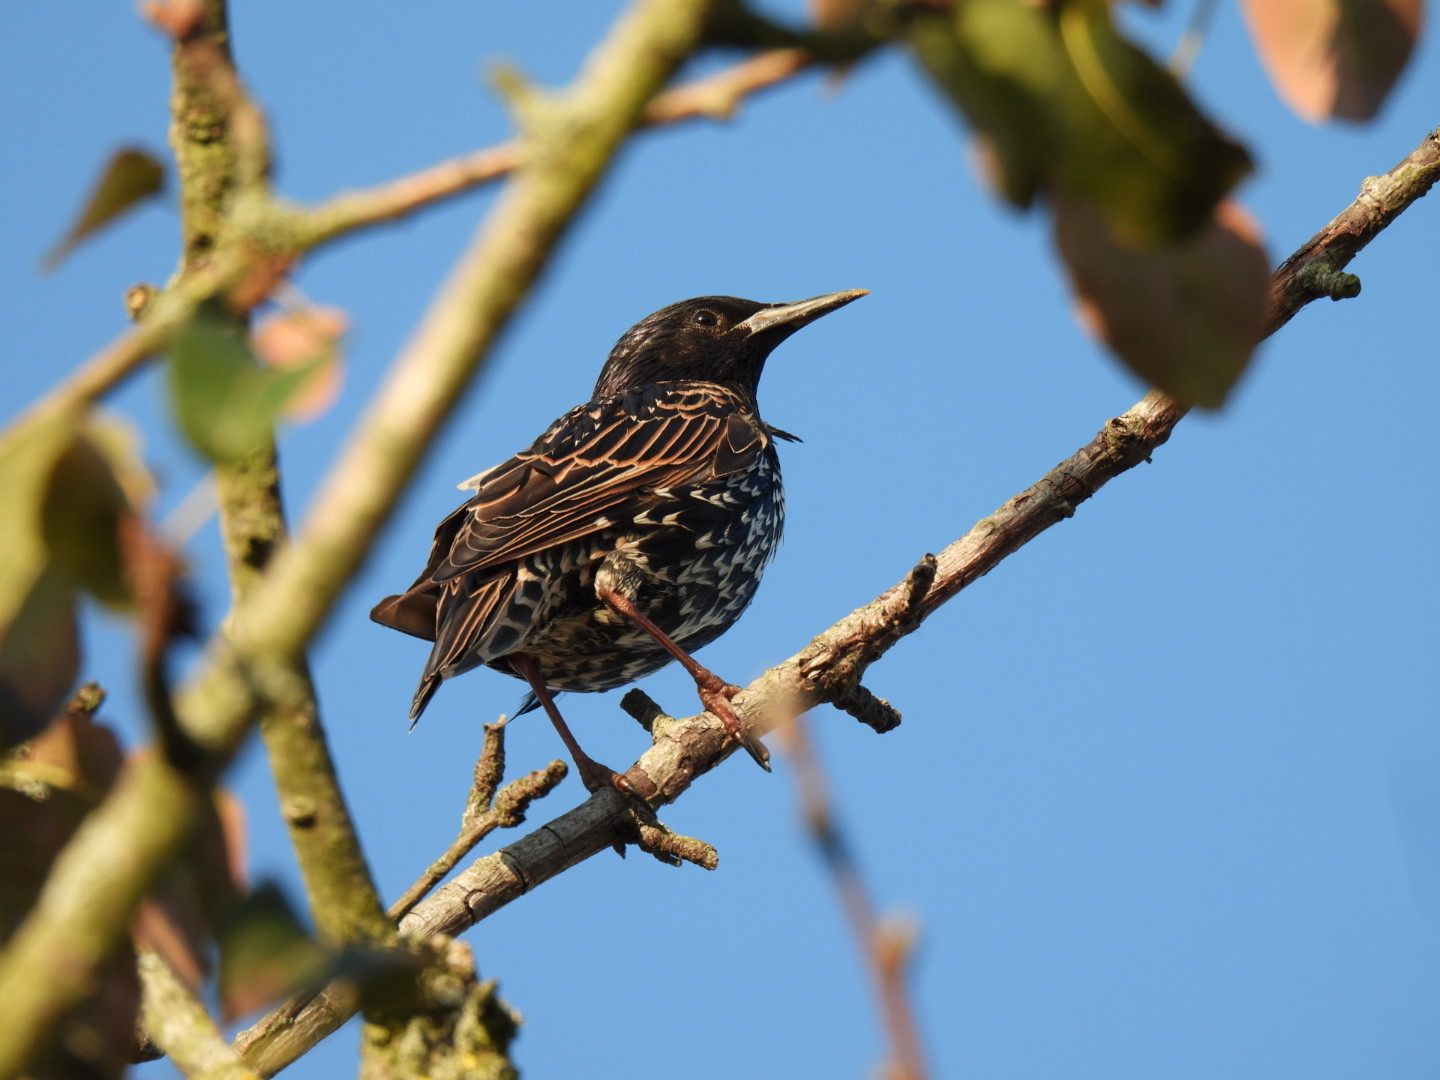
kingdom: Animalia
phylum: Chordata
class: Aves
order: Passeriformes
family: Sturnidae
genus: Sturnus
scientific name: Sturnus vulgaris
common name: Common starling
